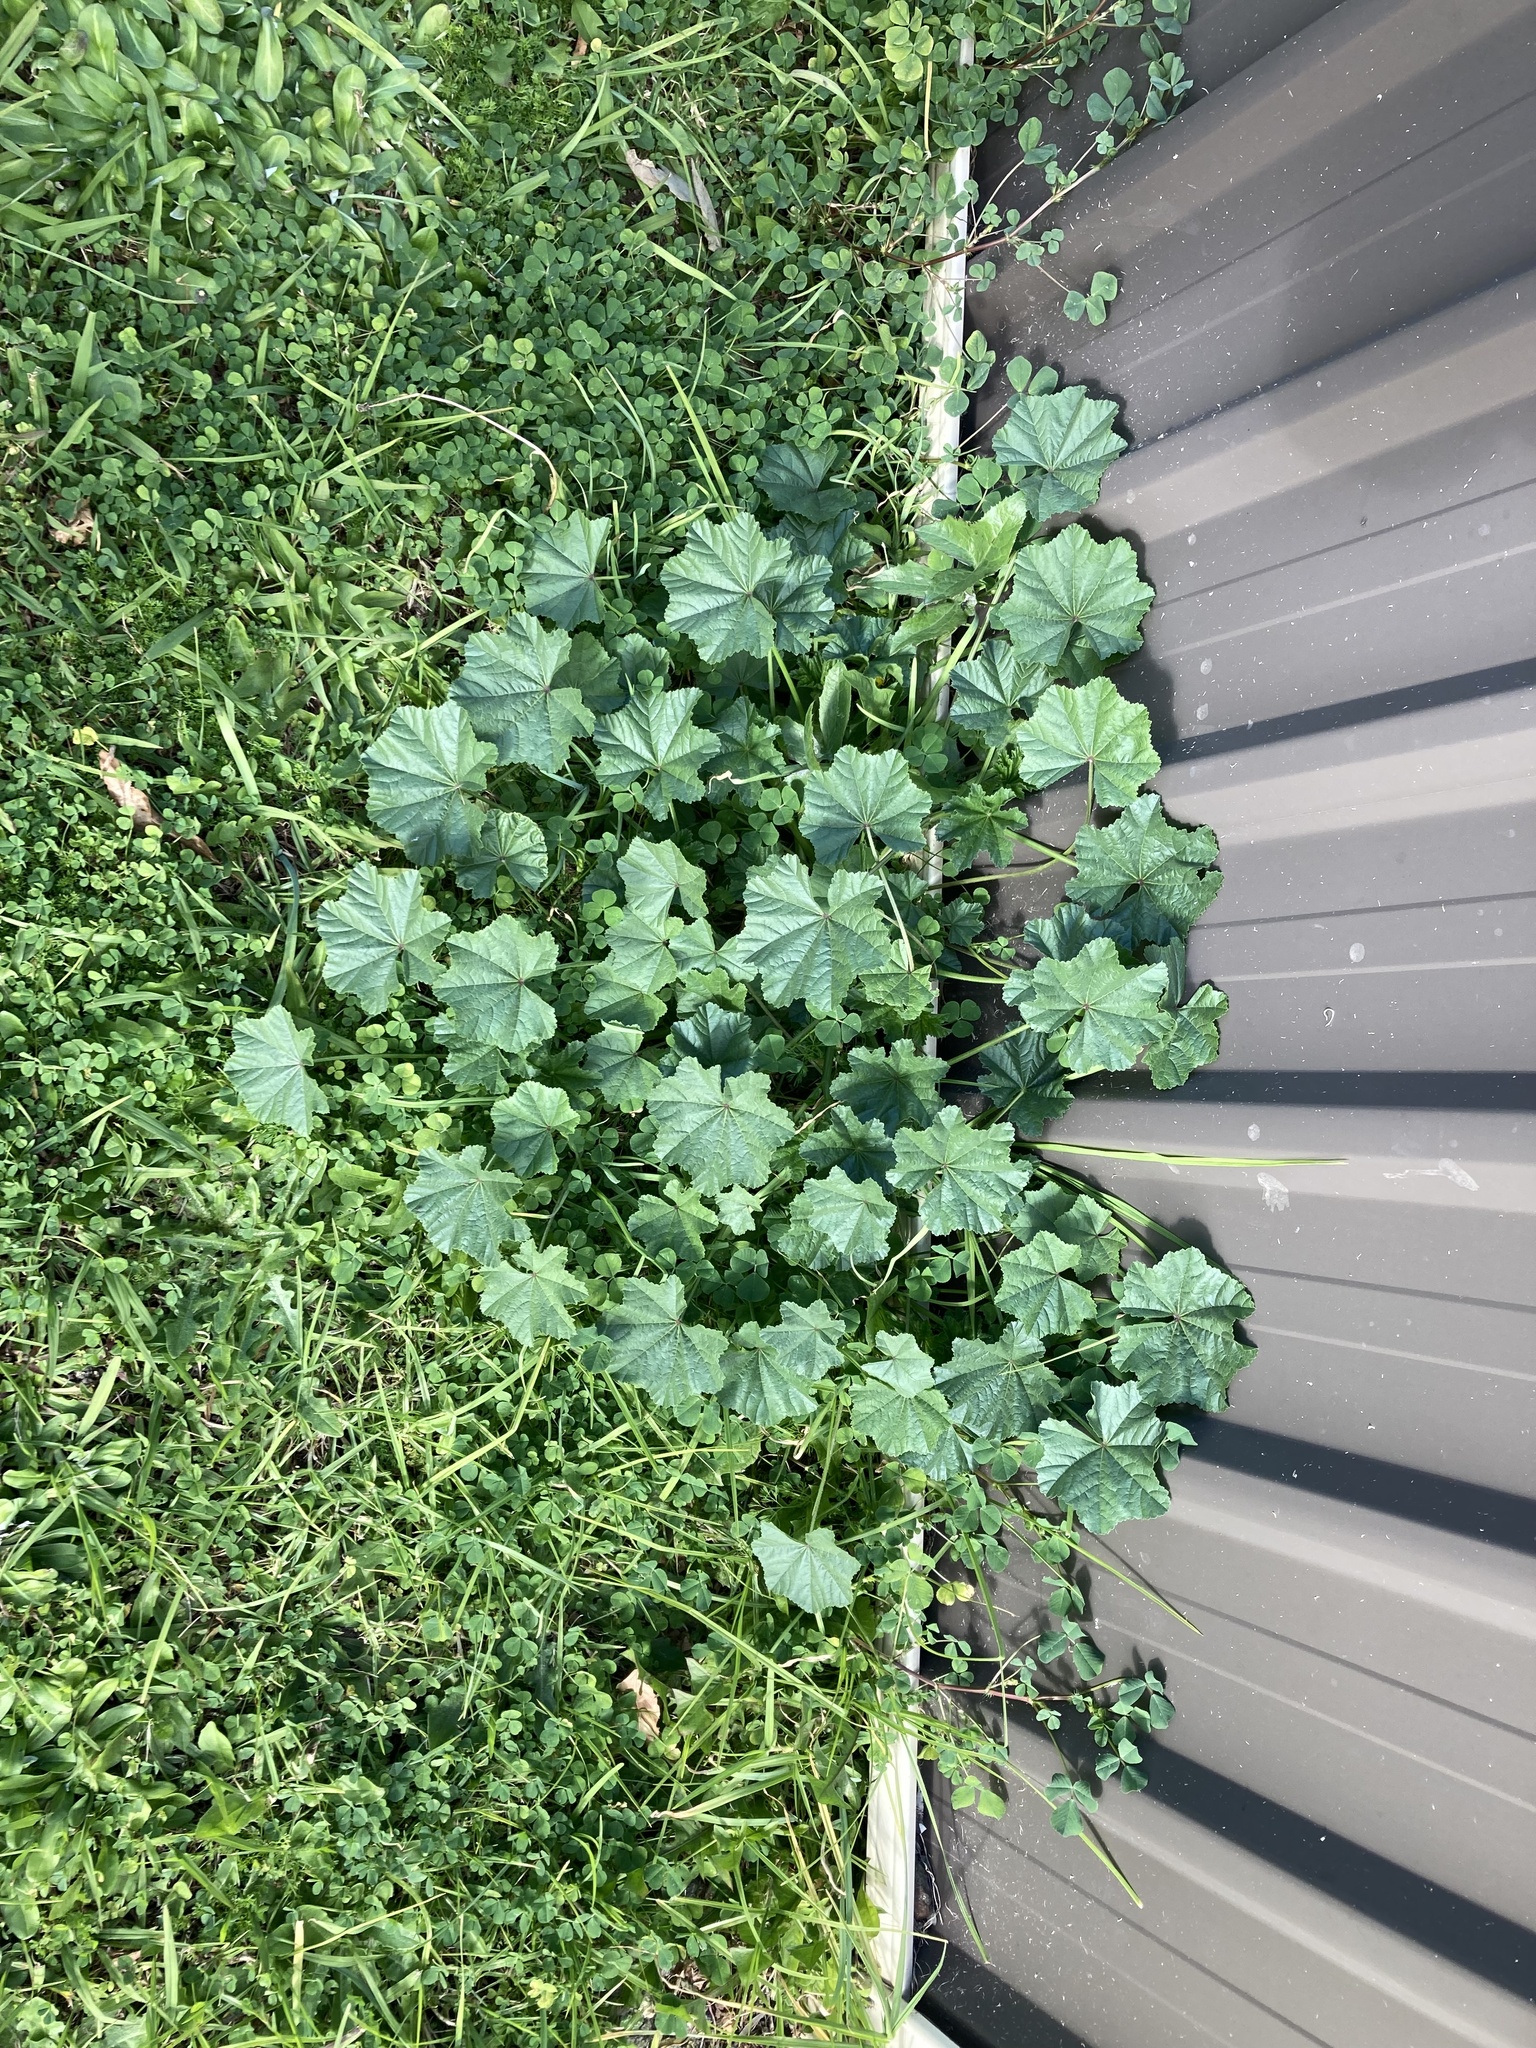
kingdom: Plantae
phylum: Tracheophyta
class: Magnoliopsida
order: Malvales
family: Malvaceae
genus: Malva
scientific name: Malva parviflora
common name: Least mallow
